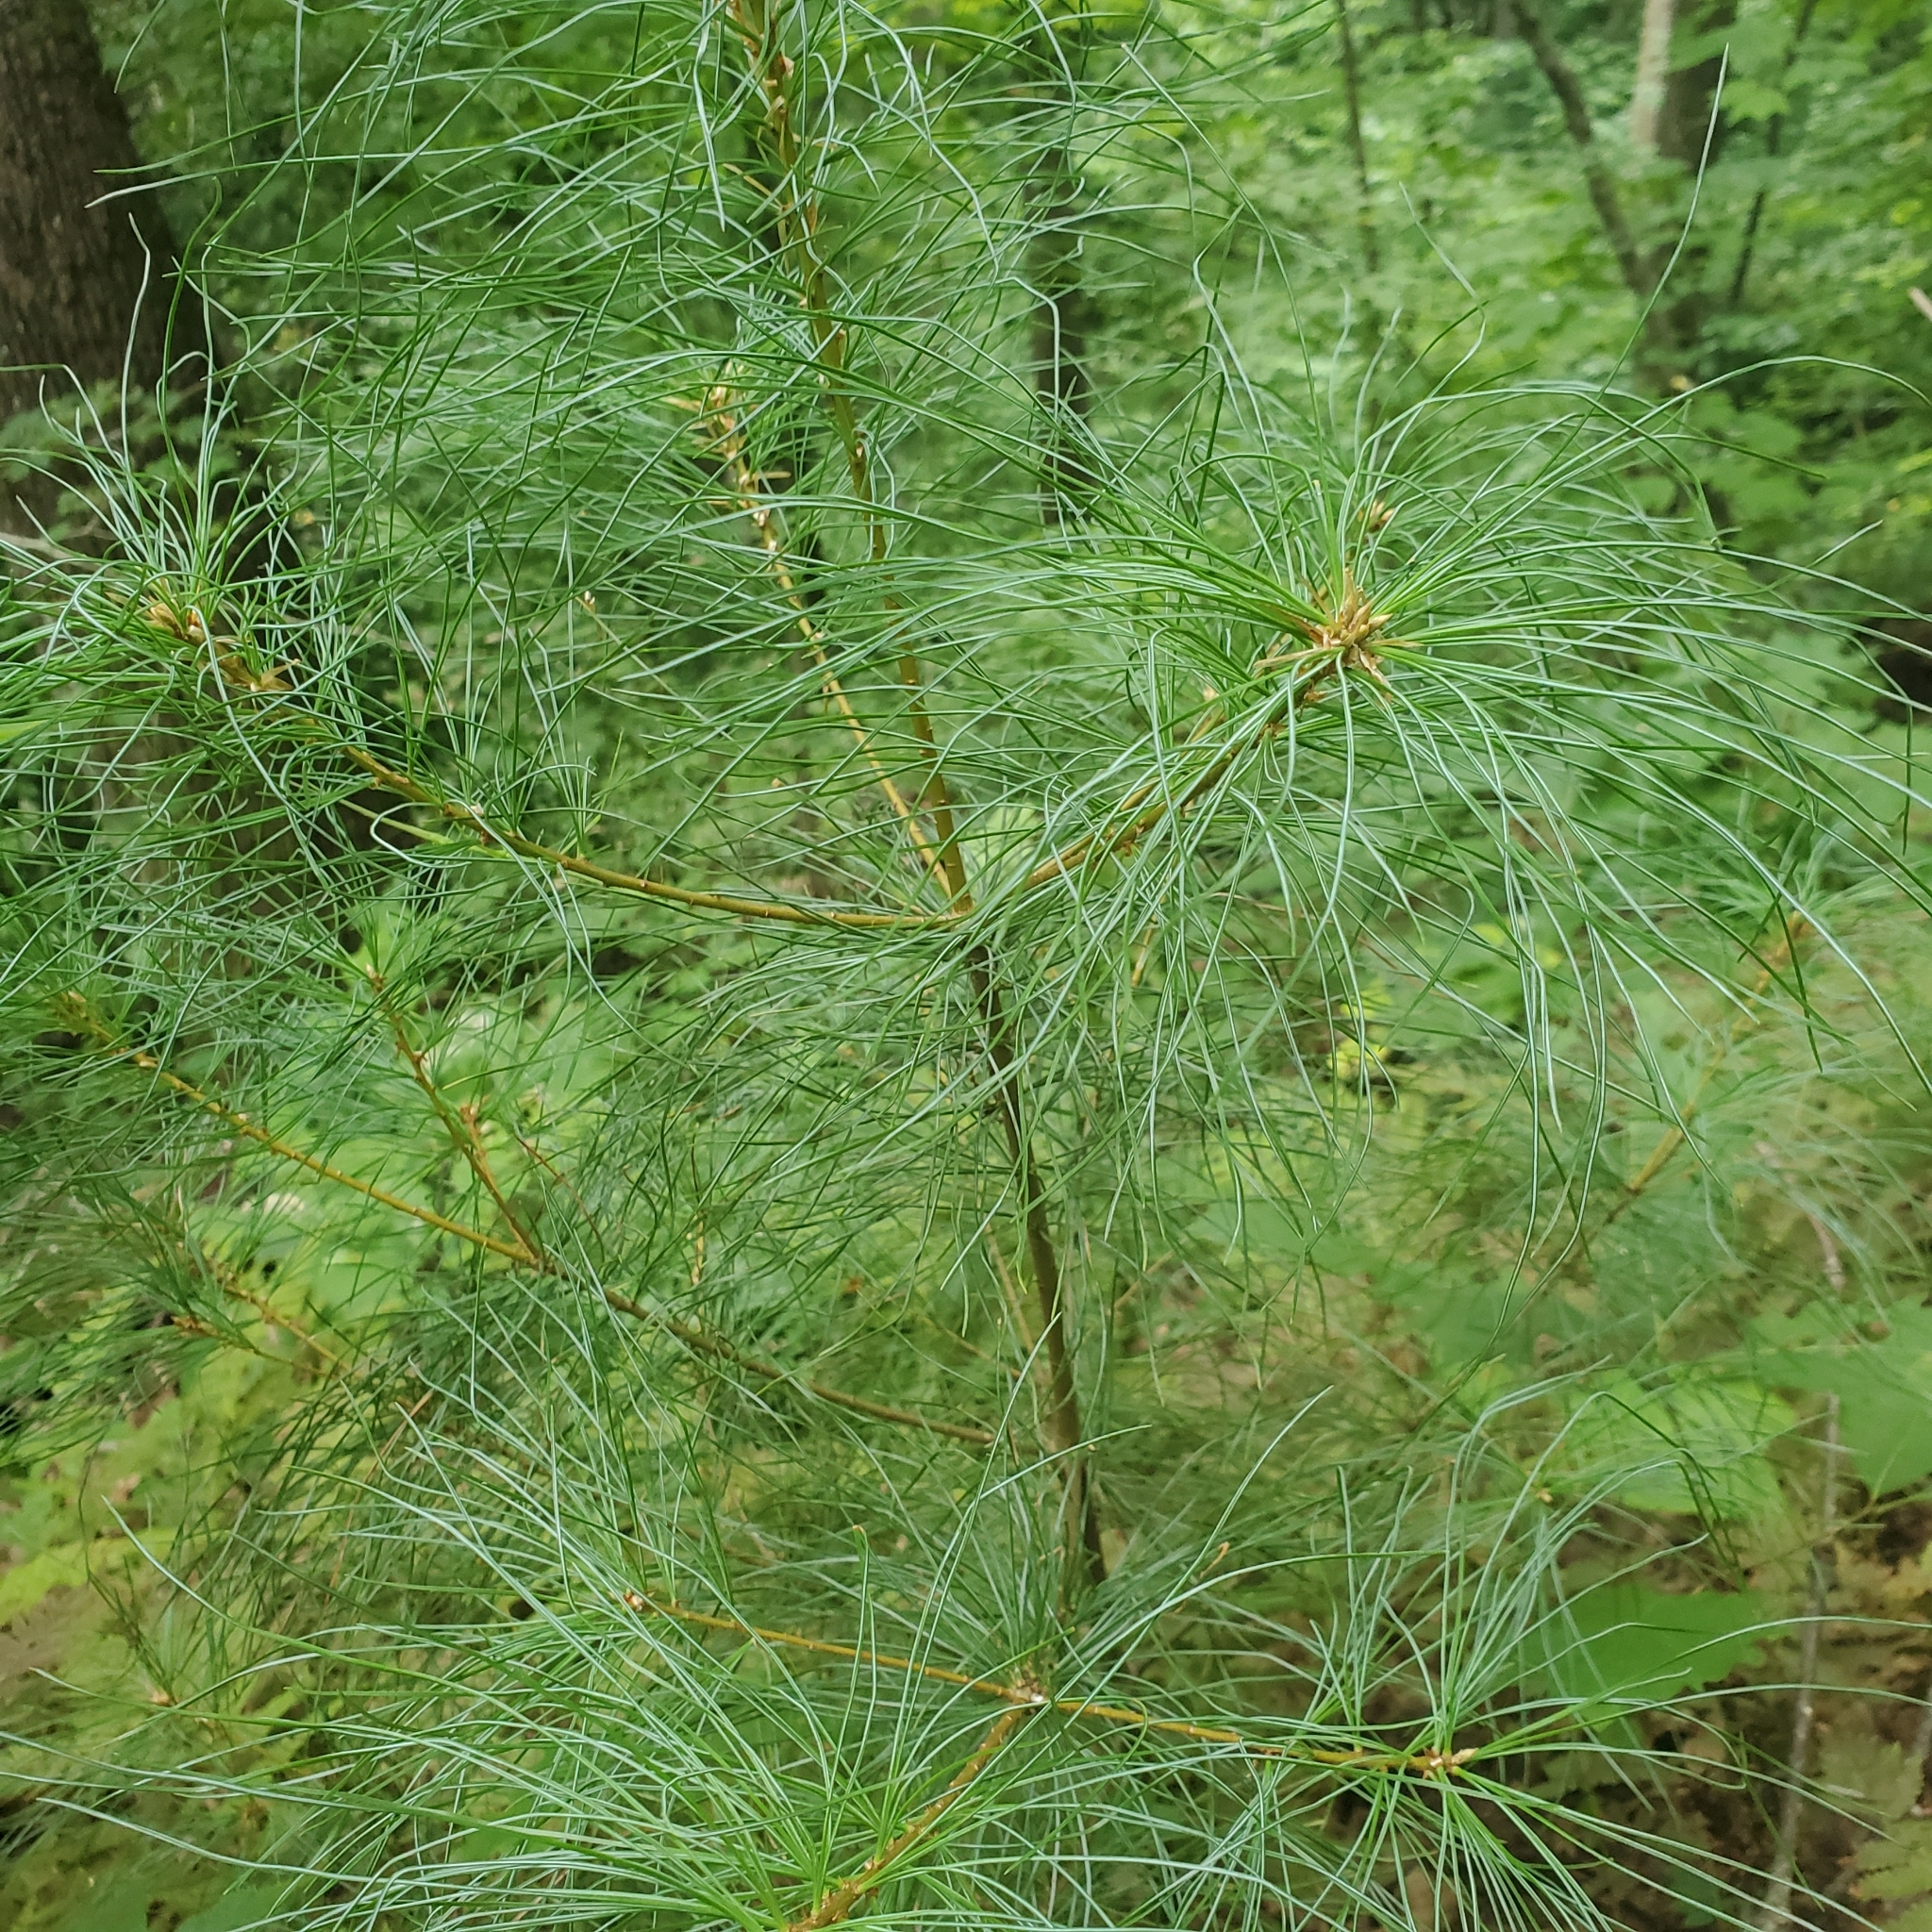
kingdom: Plantae
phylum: Tracheophyta
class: Pinopsida
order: Pinales
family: Pinaceae
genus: Pinus
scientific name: Pinus strobus
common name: Weymouth pine
